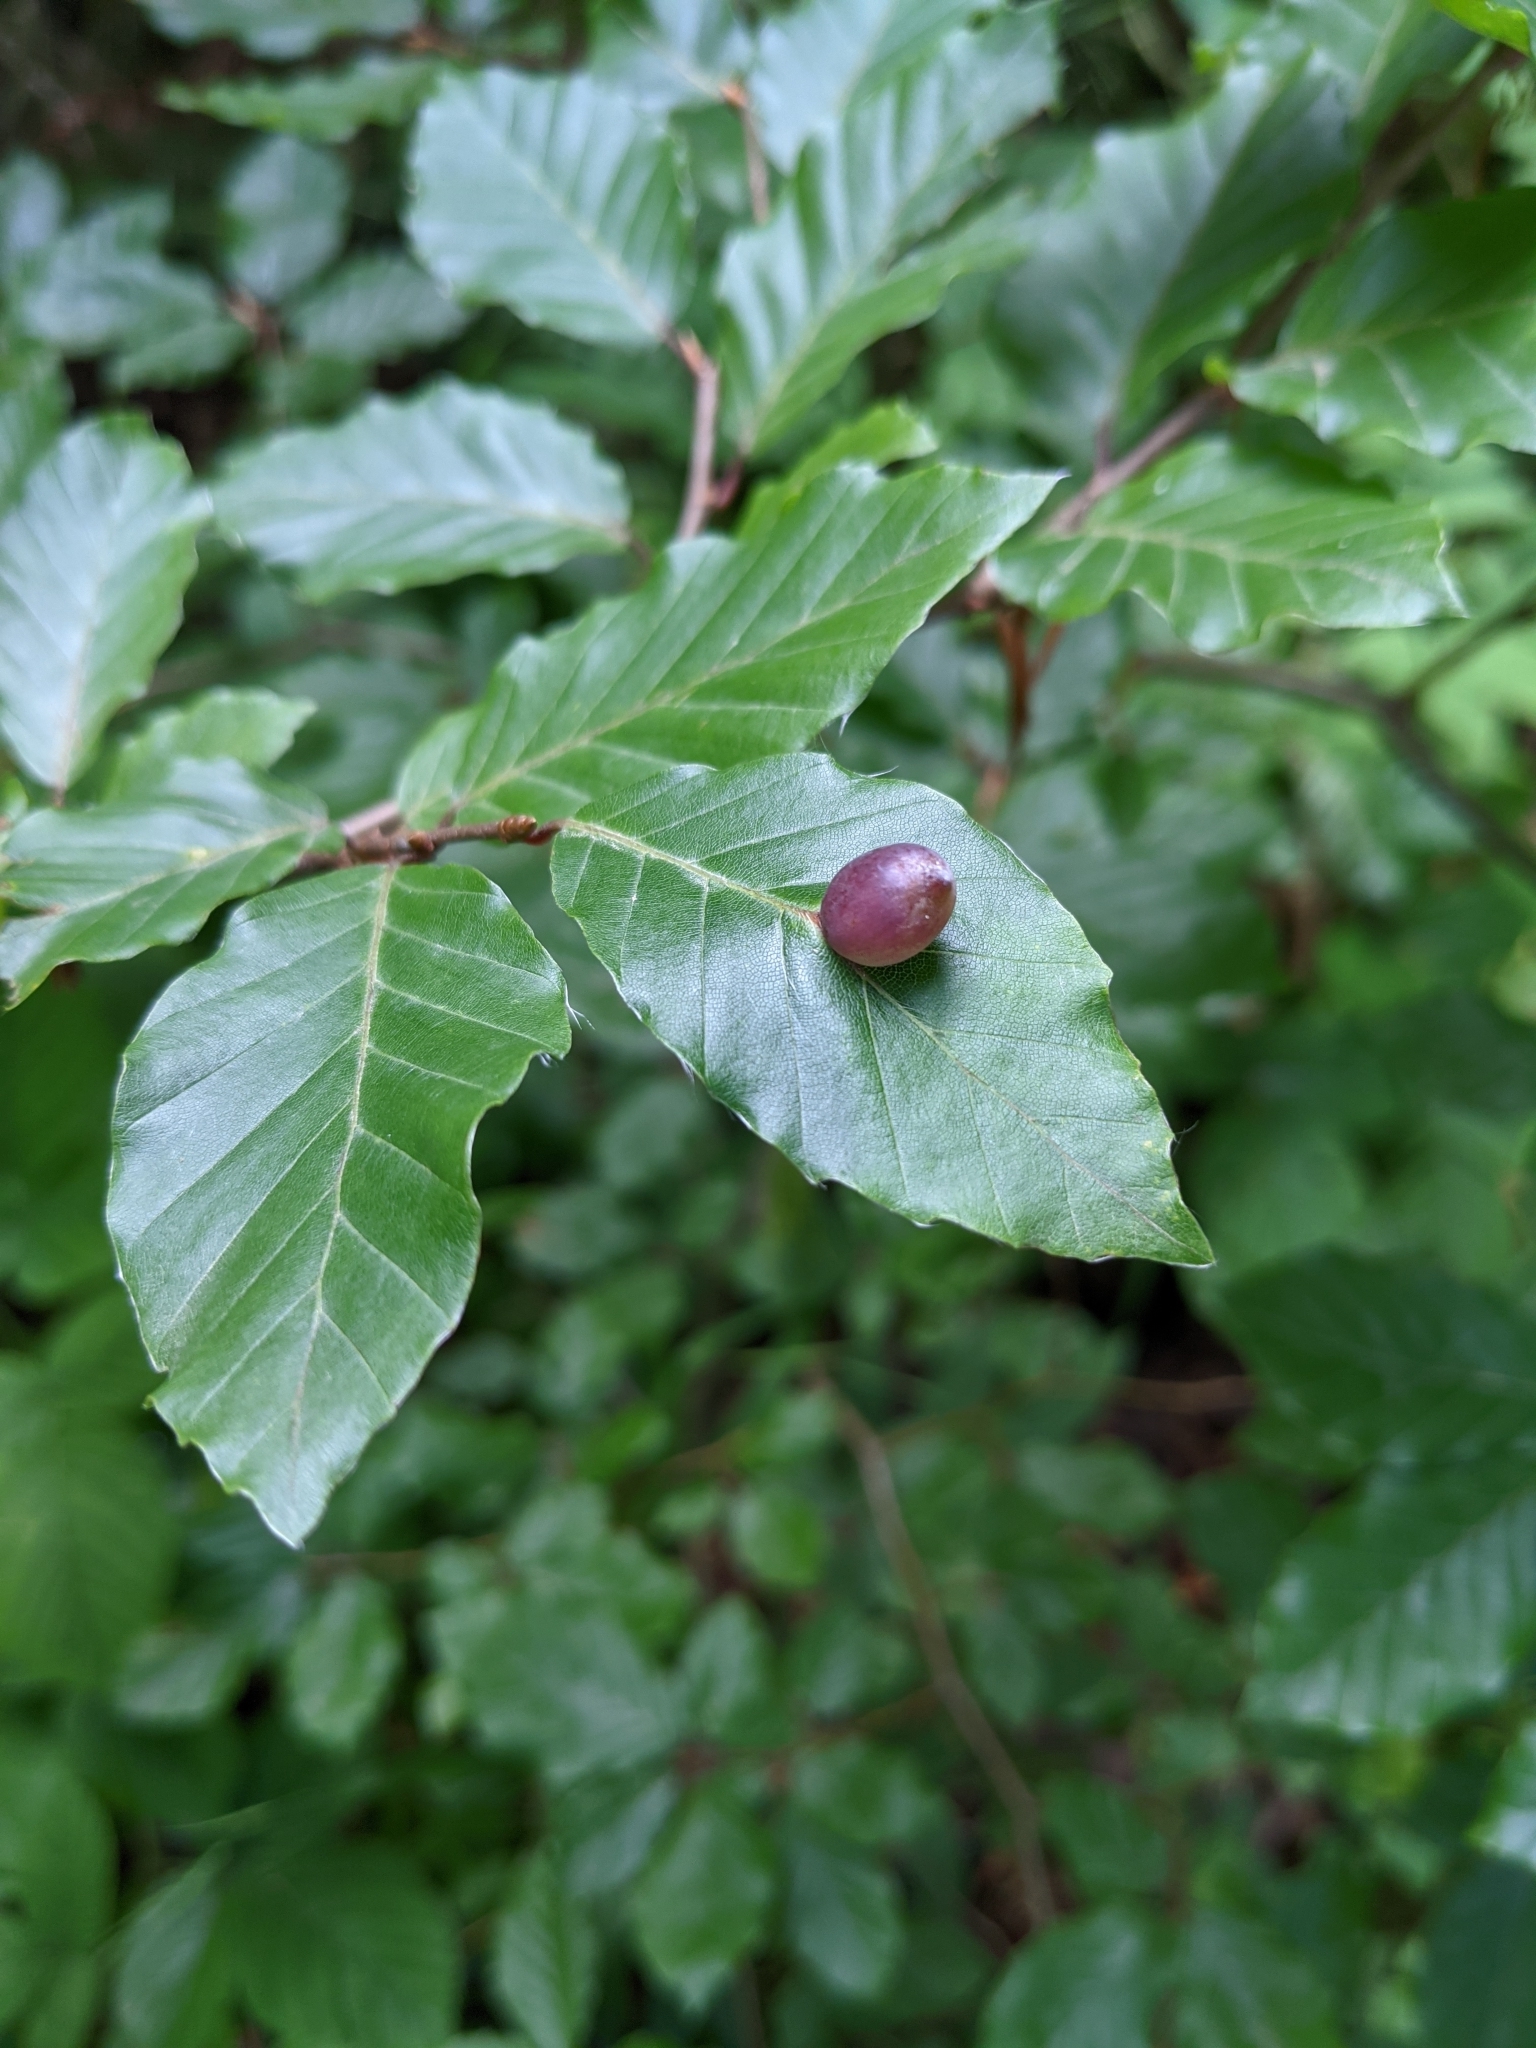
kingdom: Animalia
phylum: Arthropoda
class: Insecta
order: Diptera
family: Cecidomyiidae
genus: Mikiola
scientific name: Mikiola fagi
